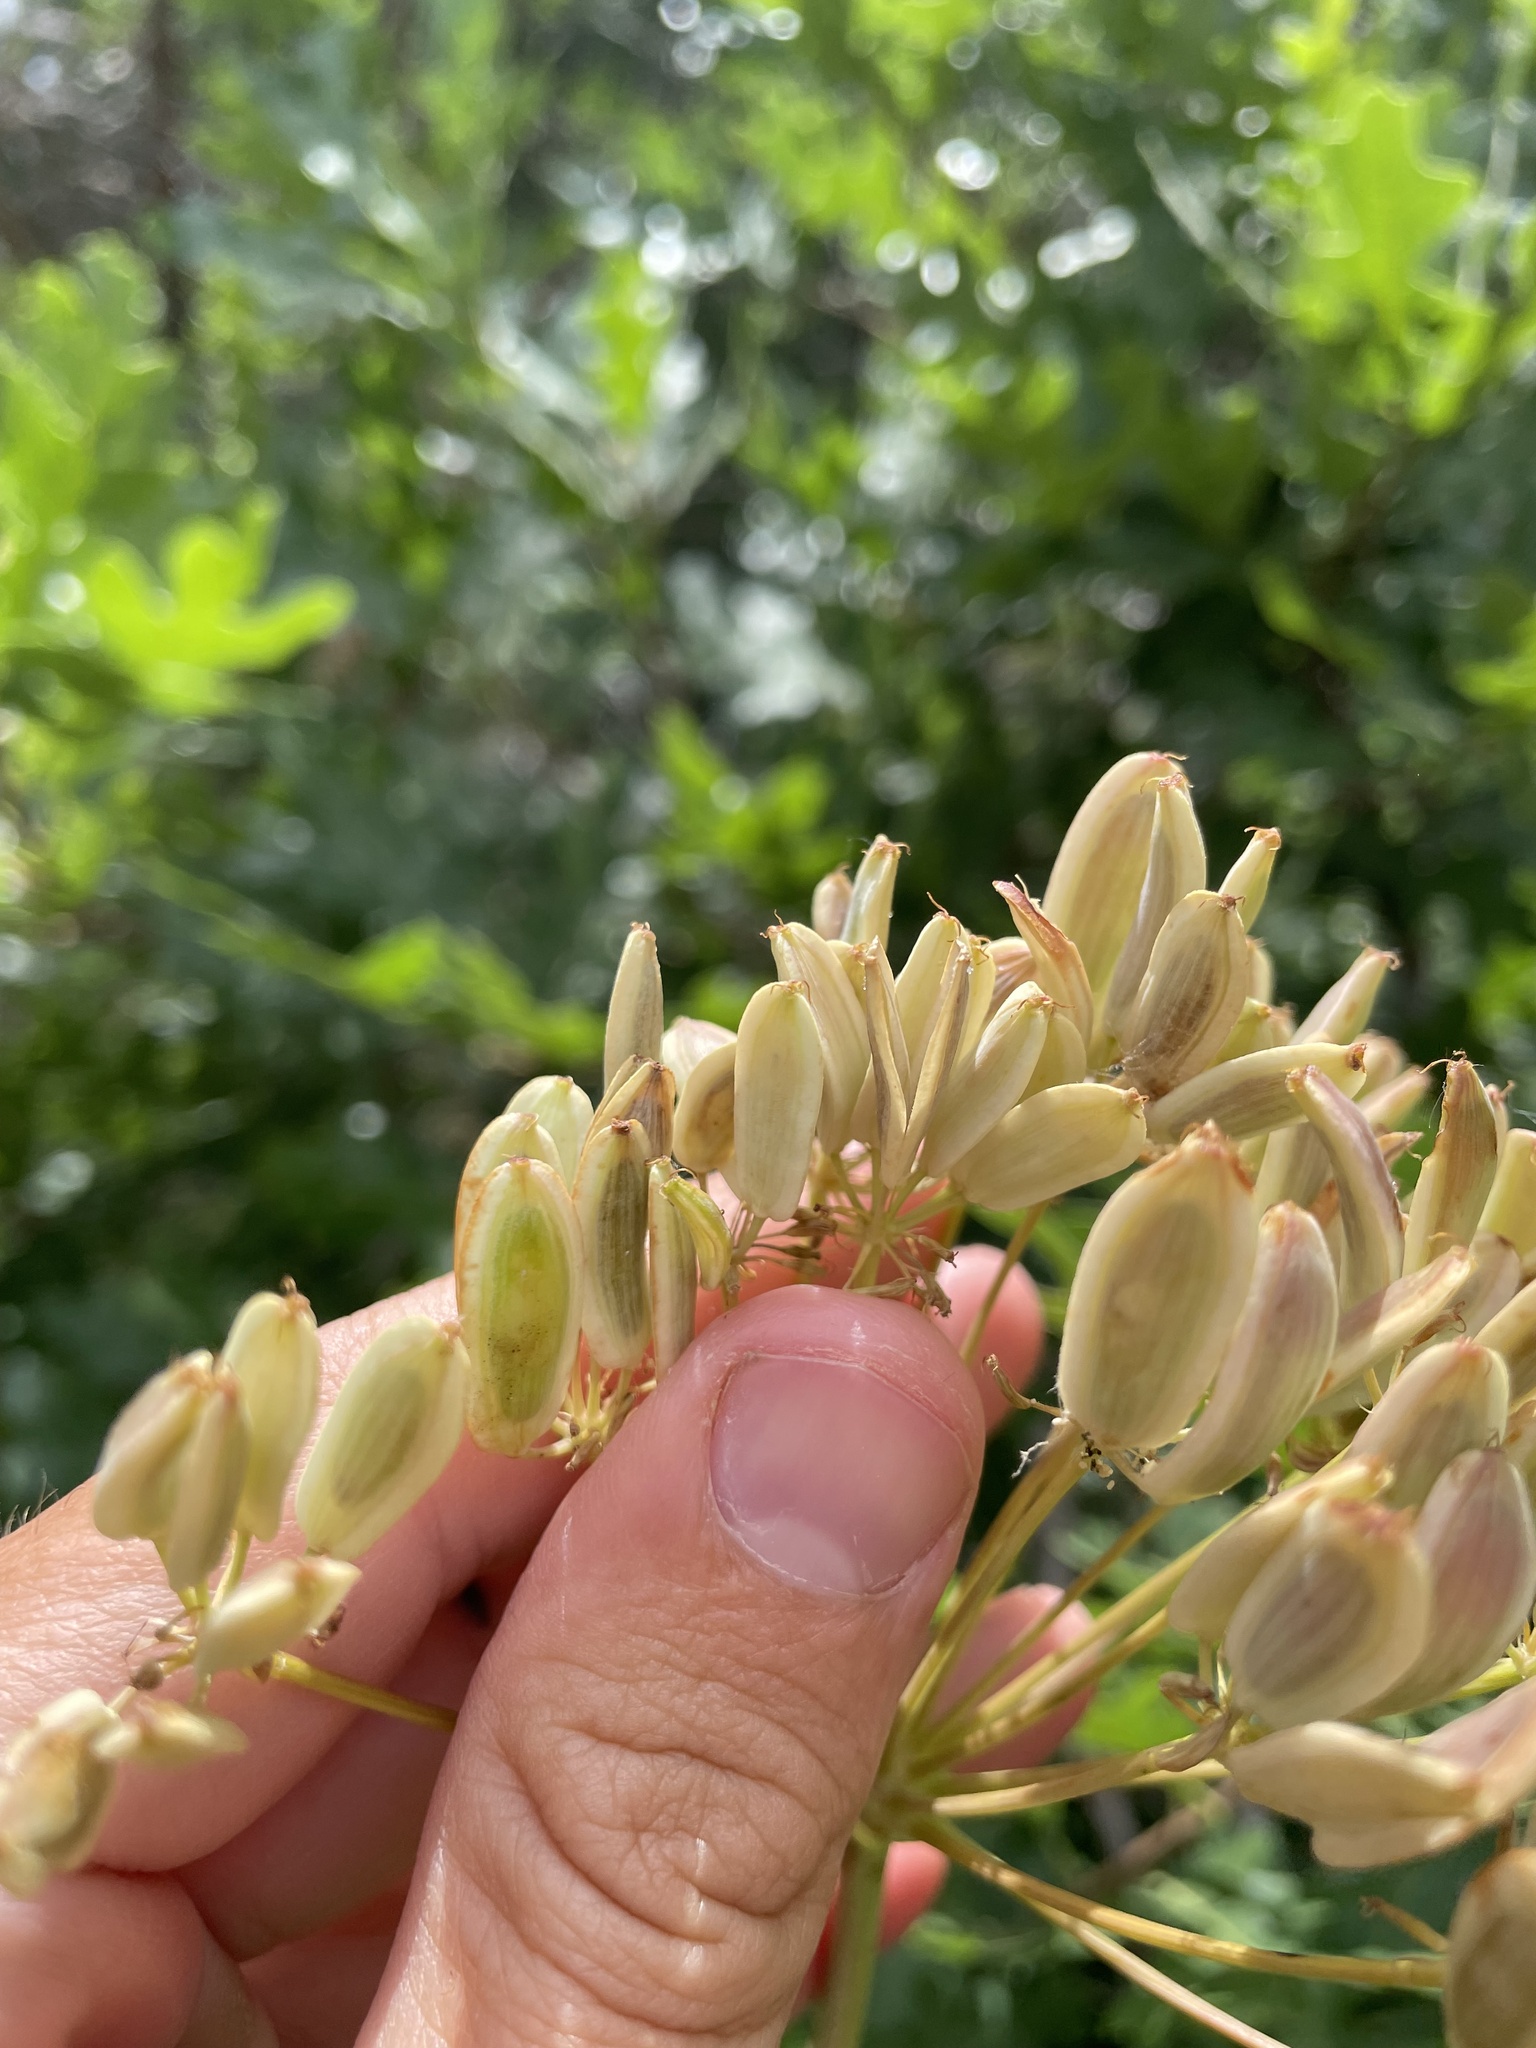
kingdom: Plantae
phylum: Tracheophyta
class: Magnoliopsida
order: Apiales
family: Apiaceae
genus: Lomatium
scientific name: Lomatium multifidum
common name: Carrot-leaved biscuitroot
